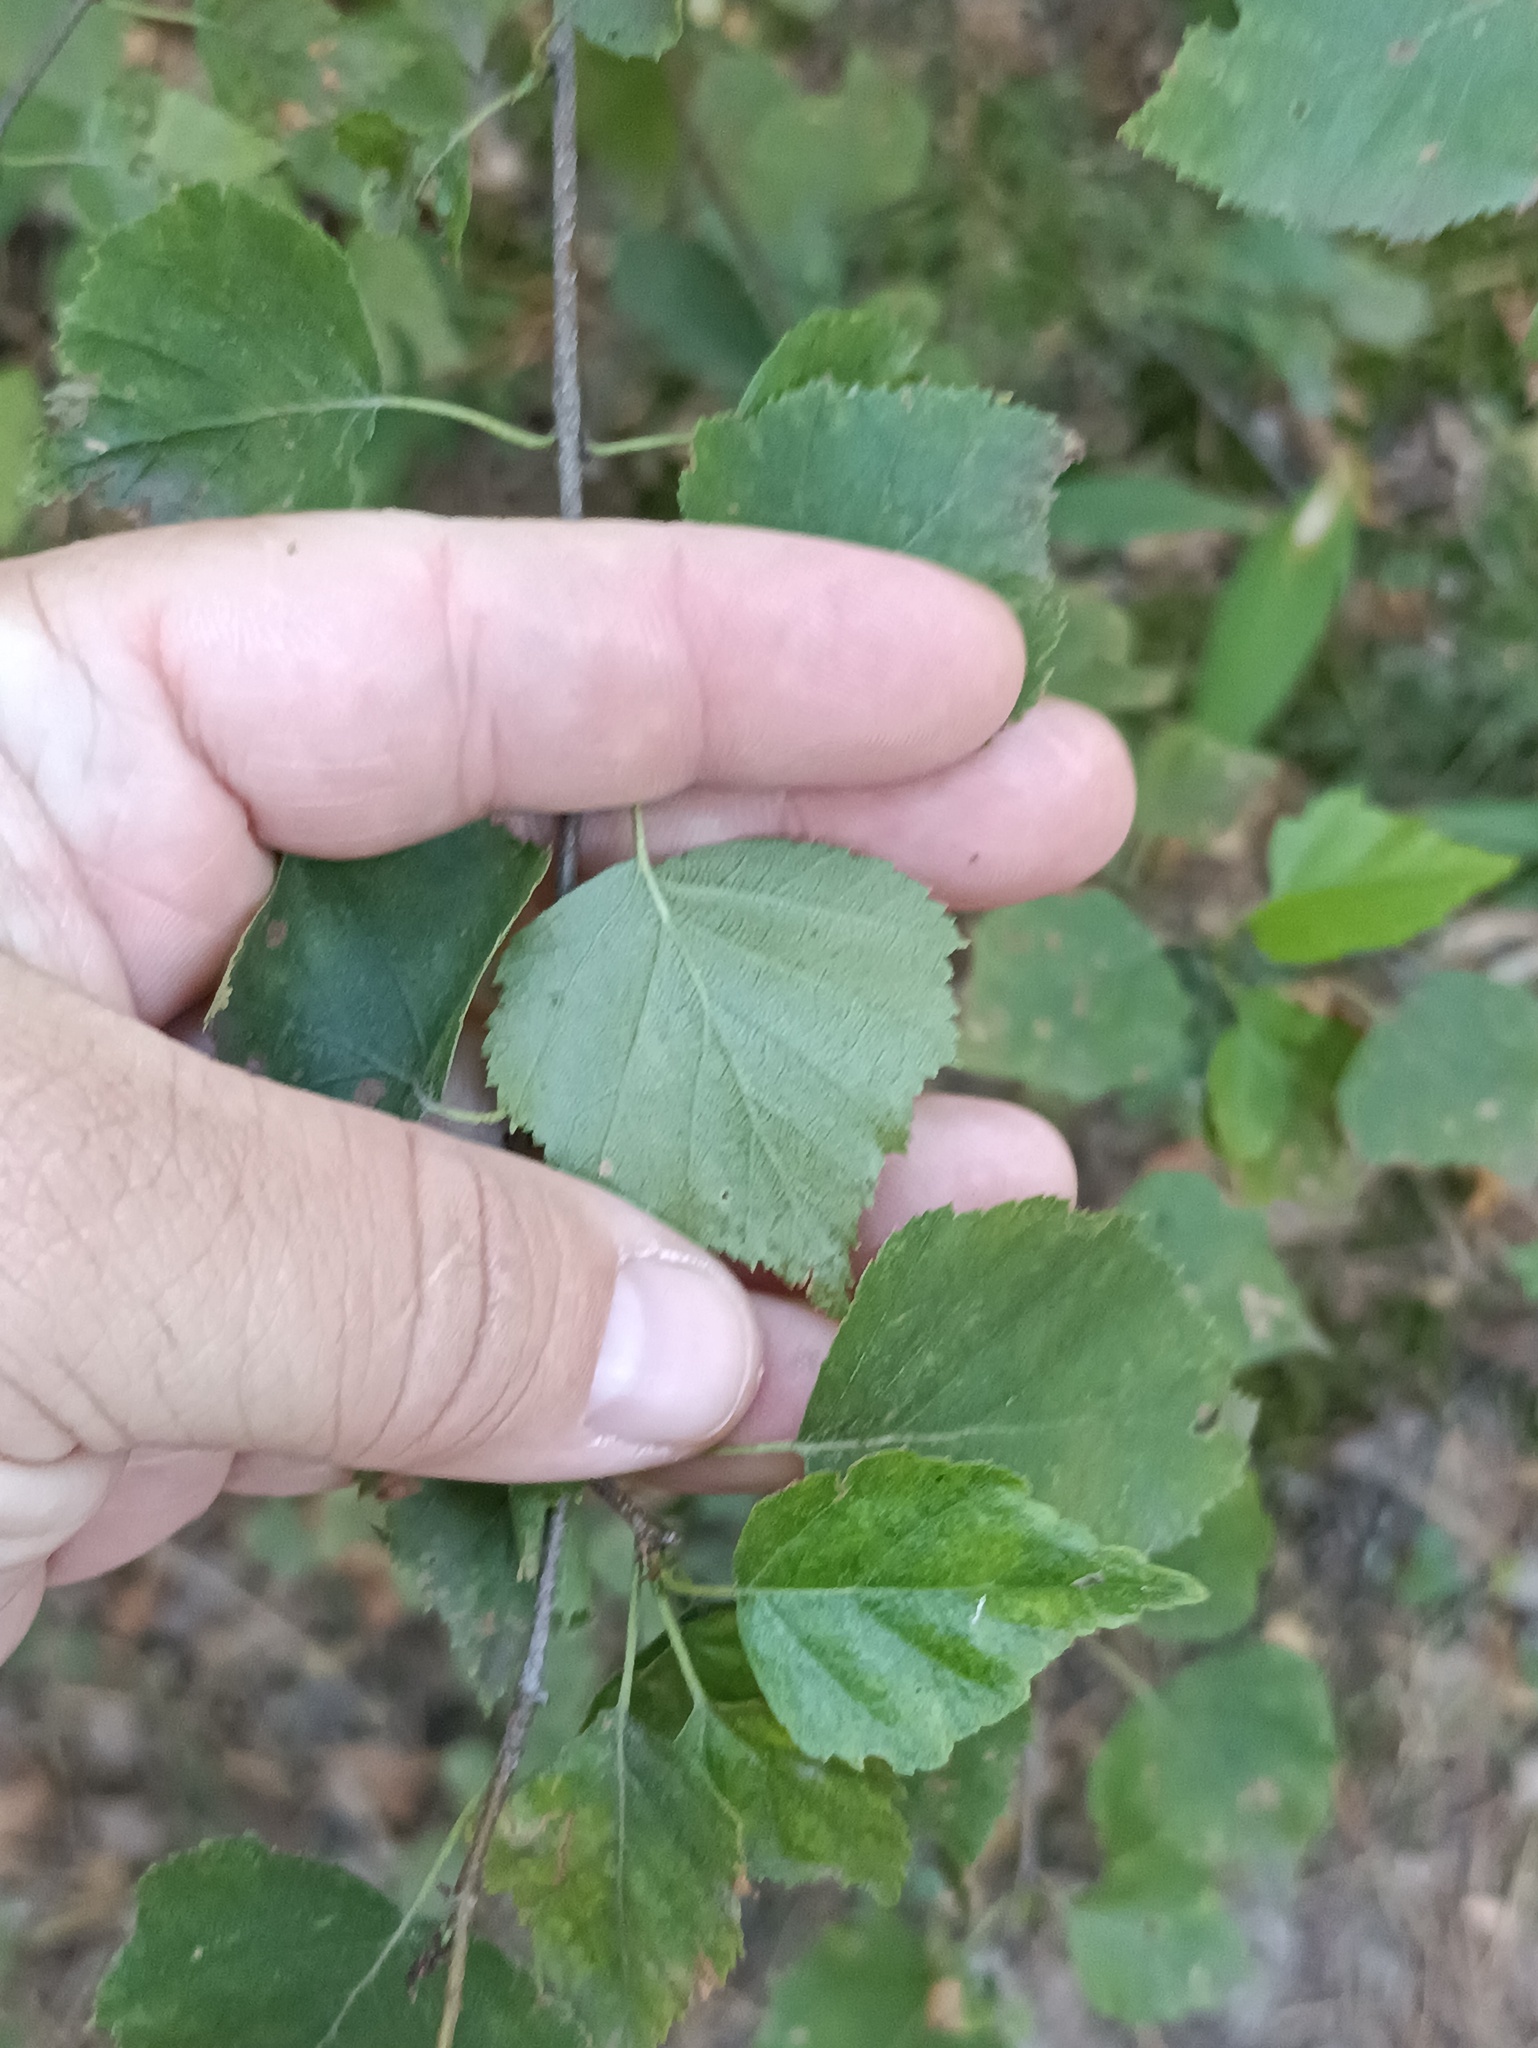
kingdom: Plantae
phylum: Tracheophyta
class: Magnoliopsida
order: Fagales
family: Betulaceae
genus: Betula
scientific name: Betula pendula
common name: Silver birch
